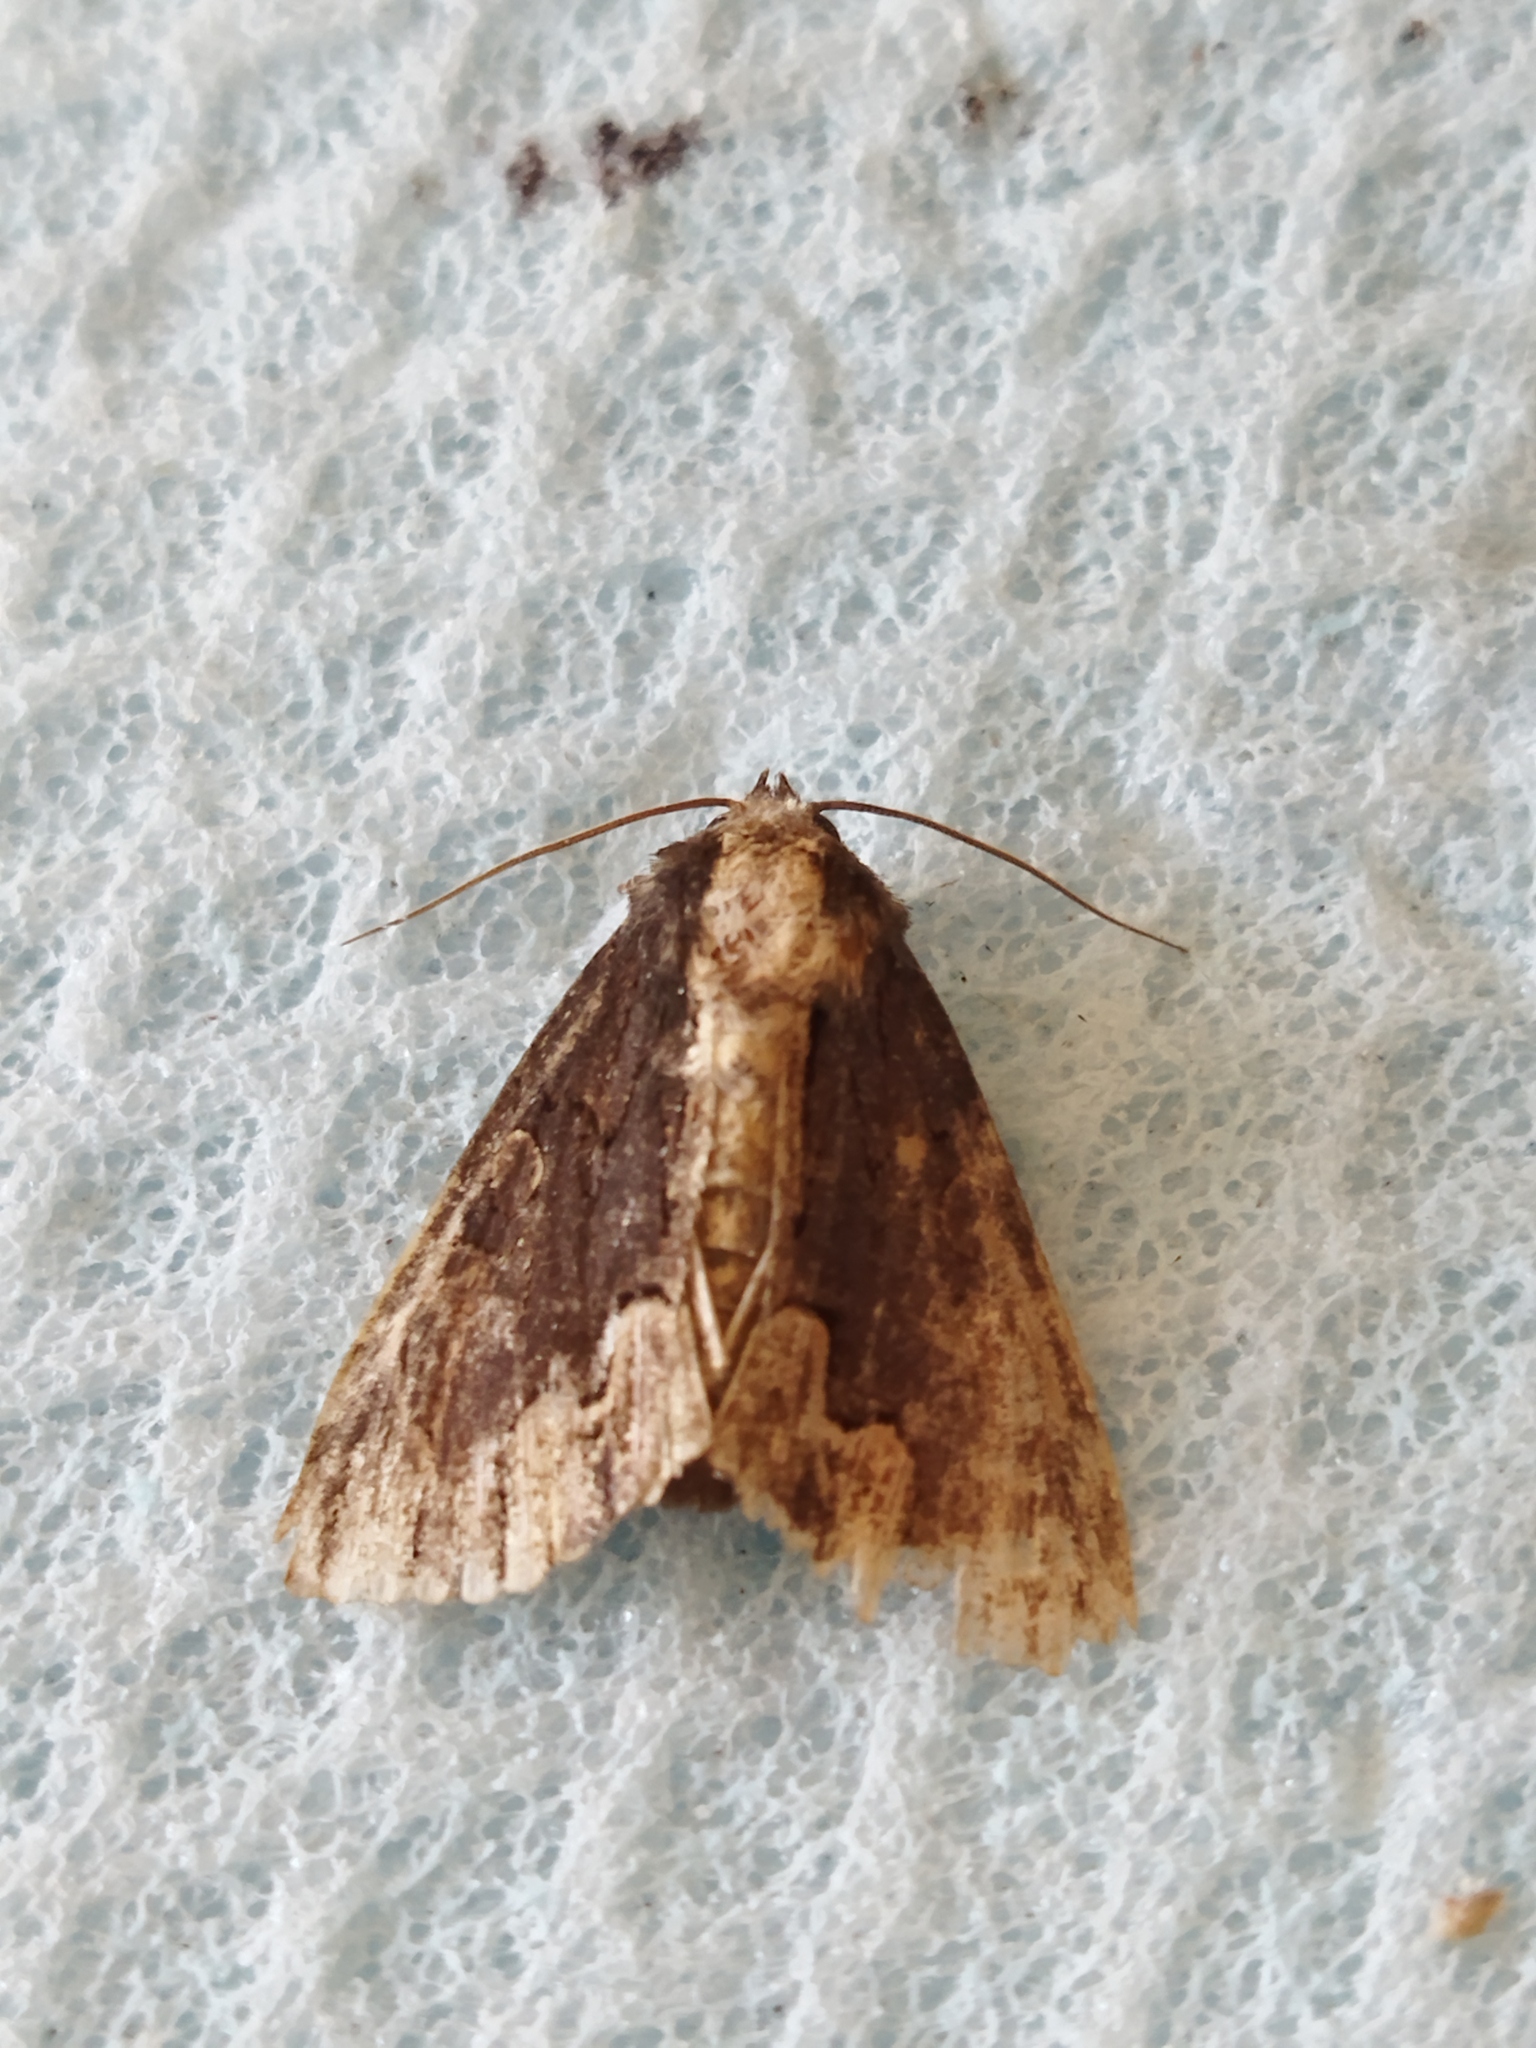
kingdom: Animalia
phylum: Arthropoda
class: Insecta
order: Lepidoptera
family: Noctuidae
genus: Dypterygia
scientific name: Dypterygia scabriuscula
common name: Bird's wing
